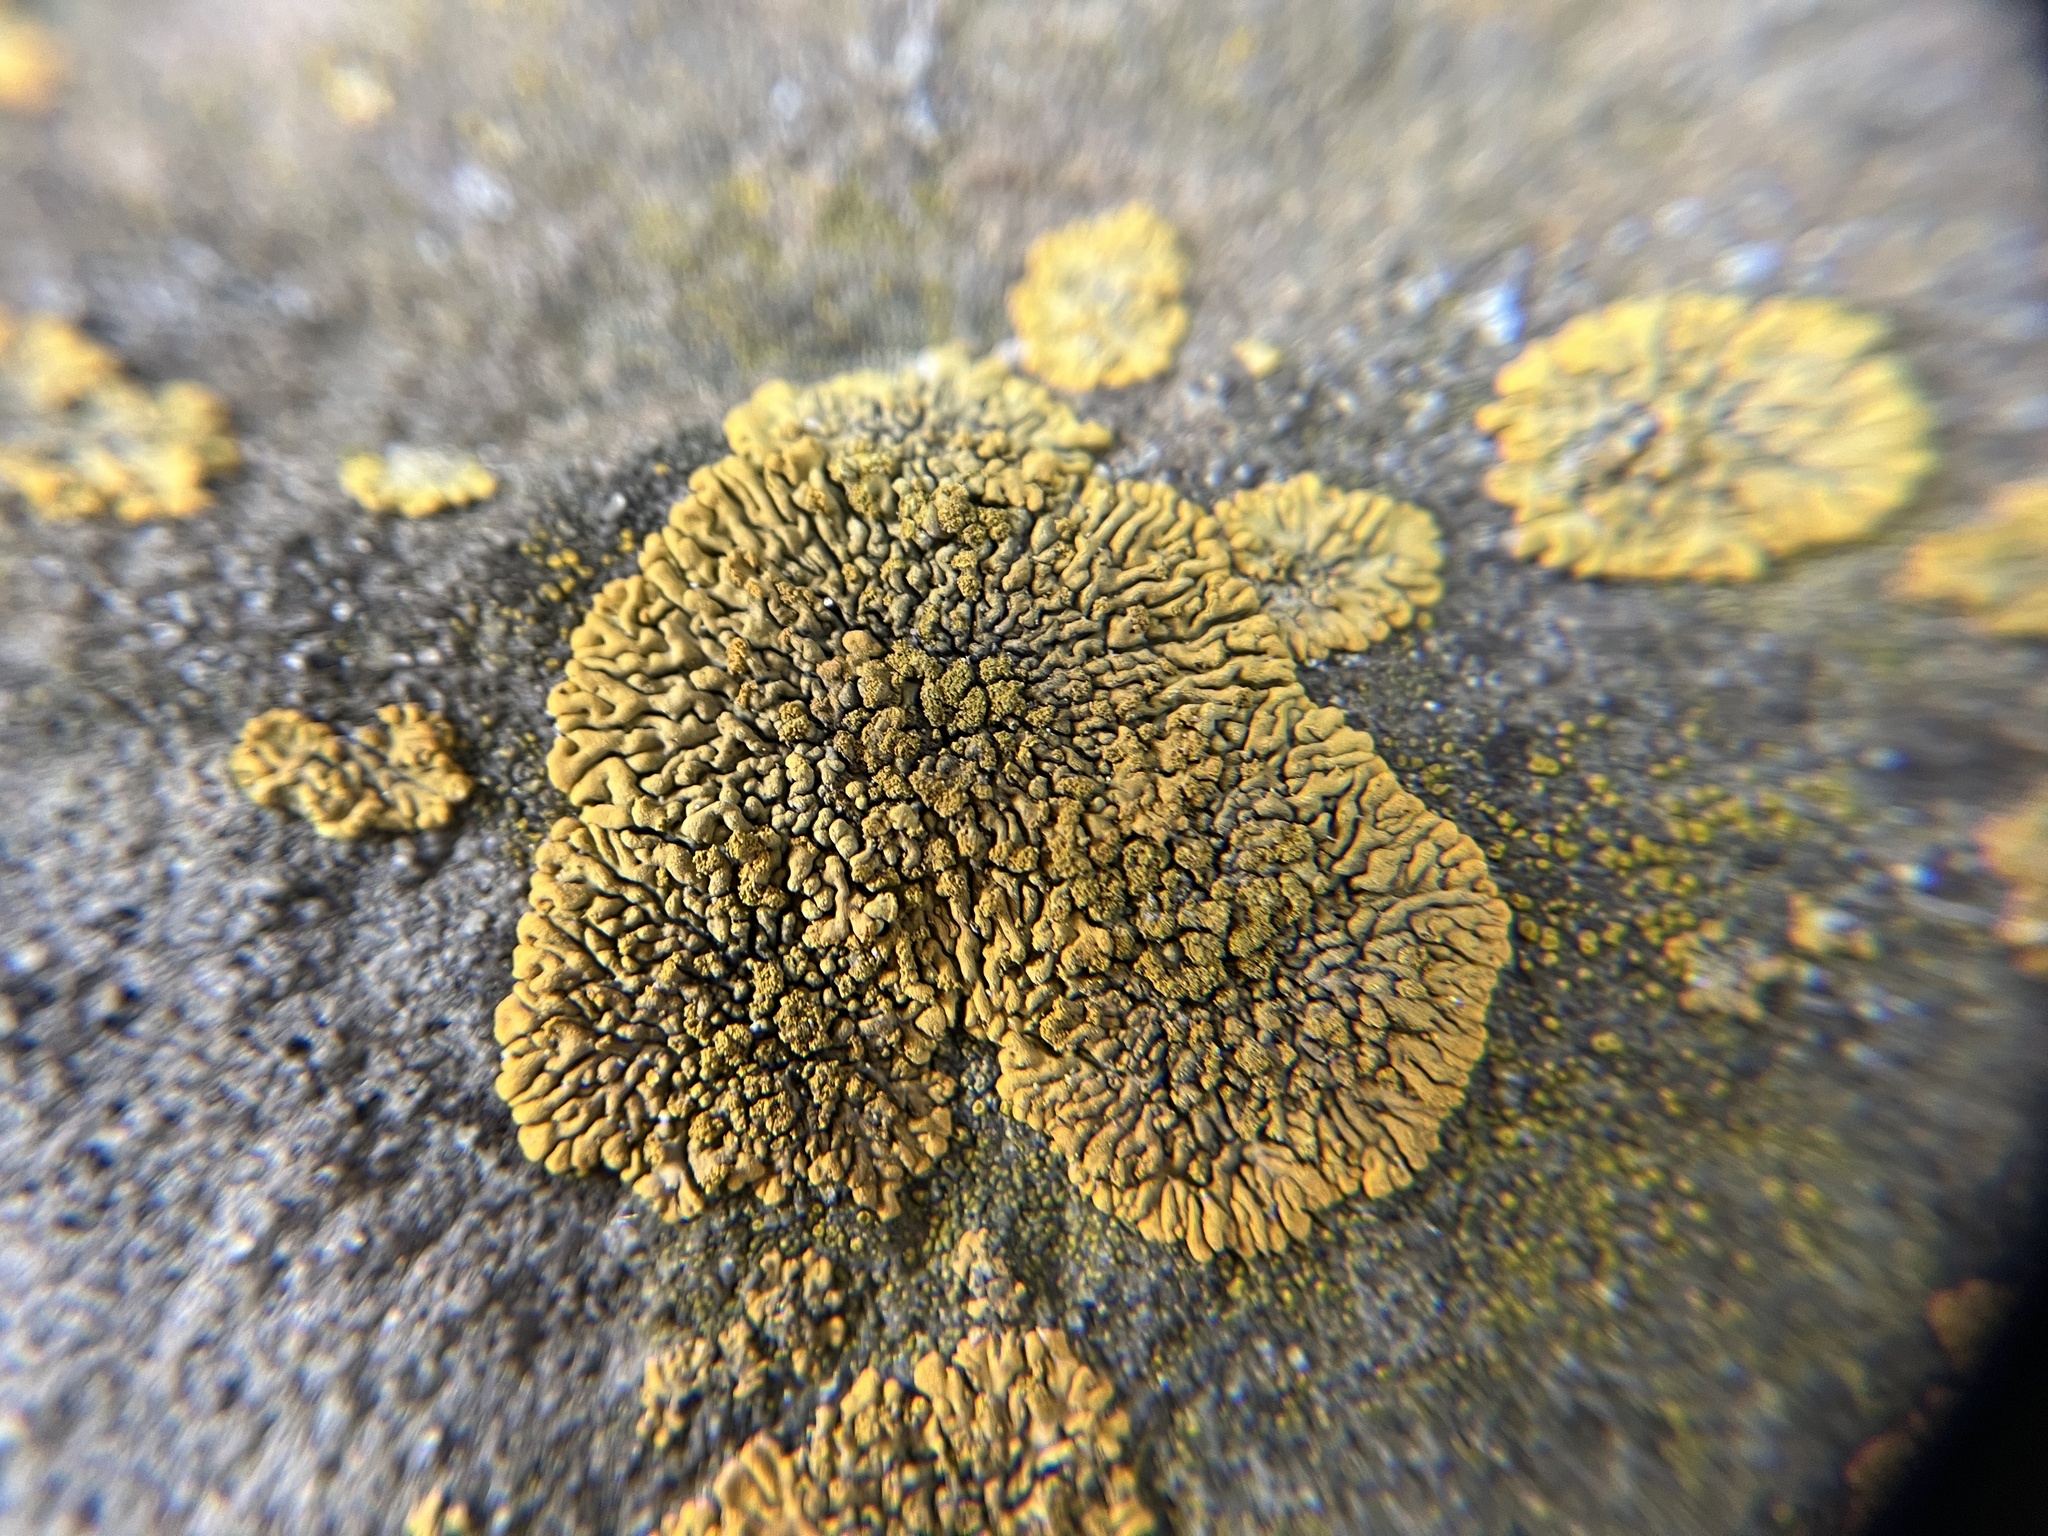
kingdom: Fungi
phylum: Ascomycota
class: Lecanoromycetes
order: Teloschistales
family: Teloschistaceae
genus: Calogaya
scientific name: Calogaya decipiens
